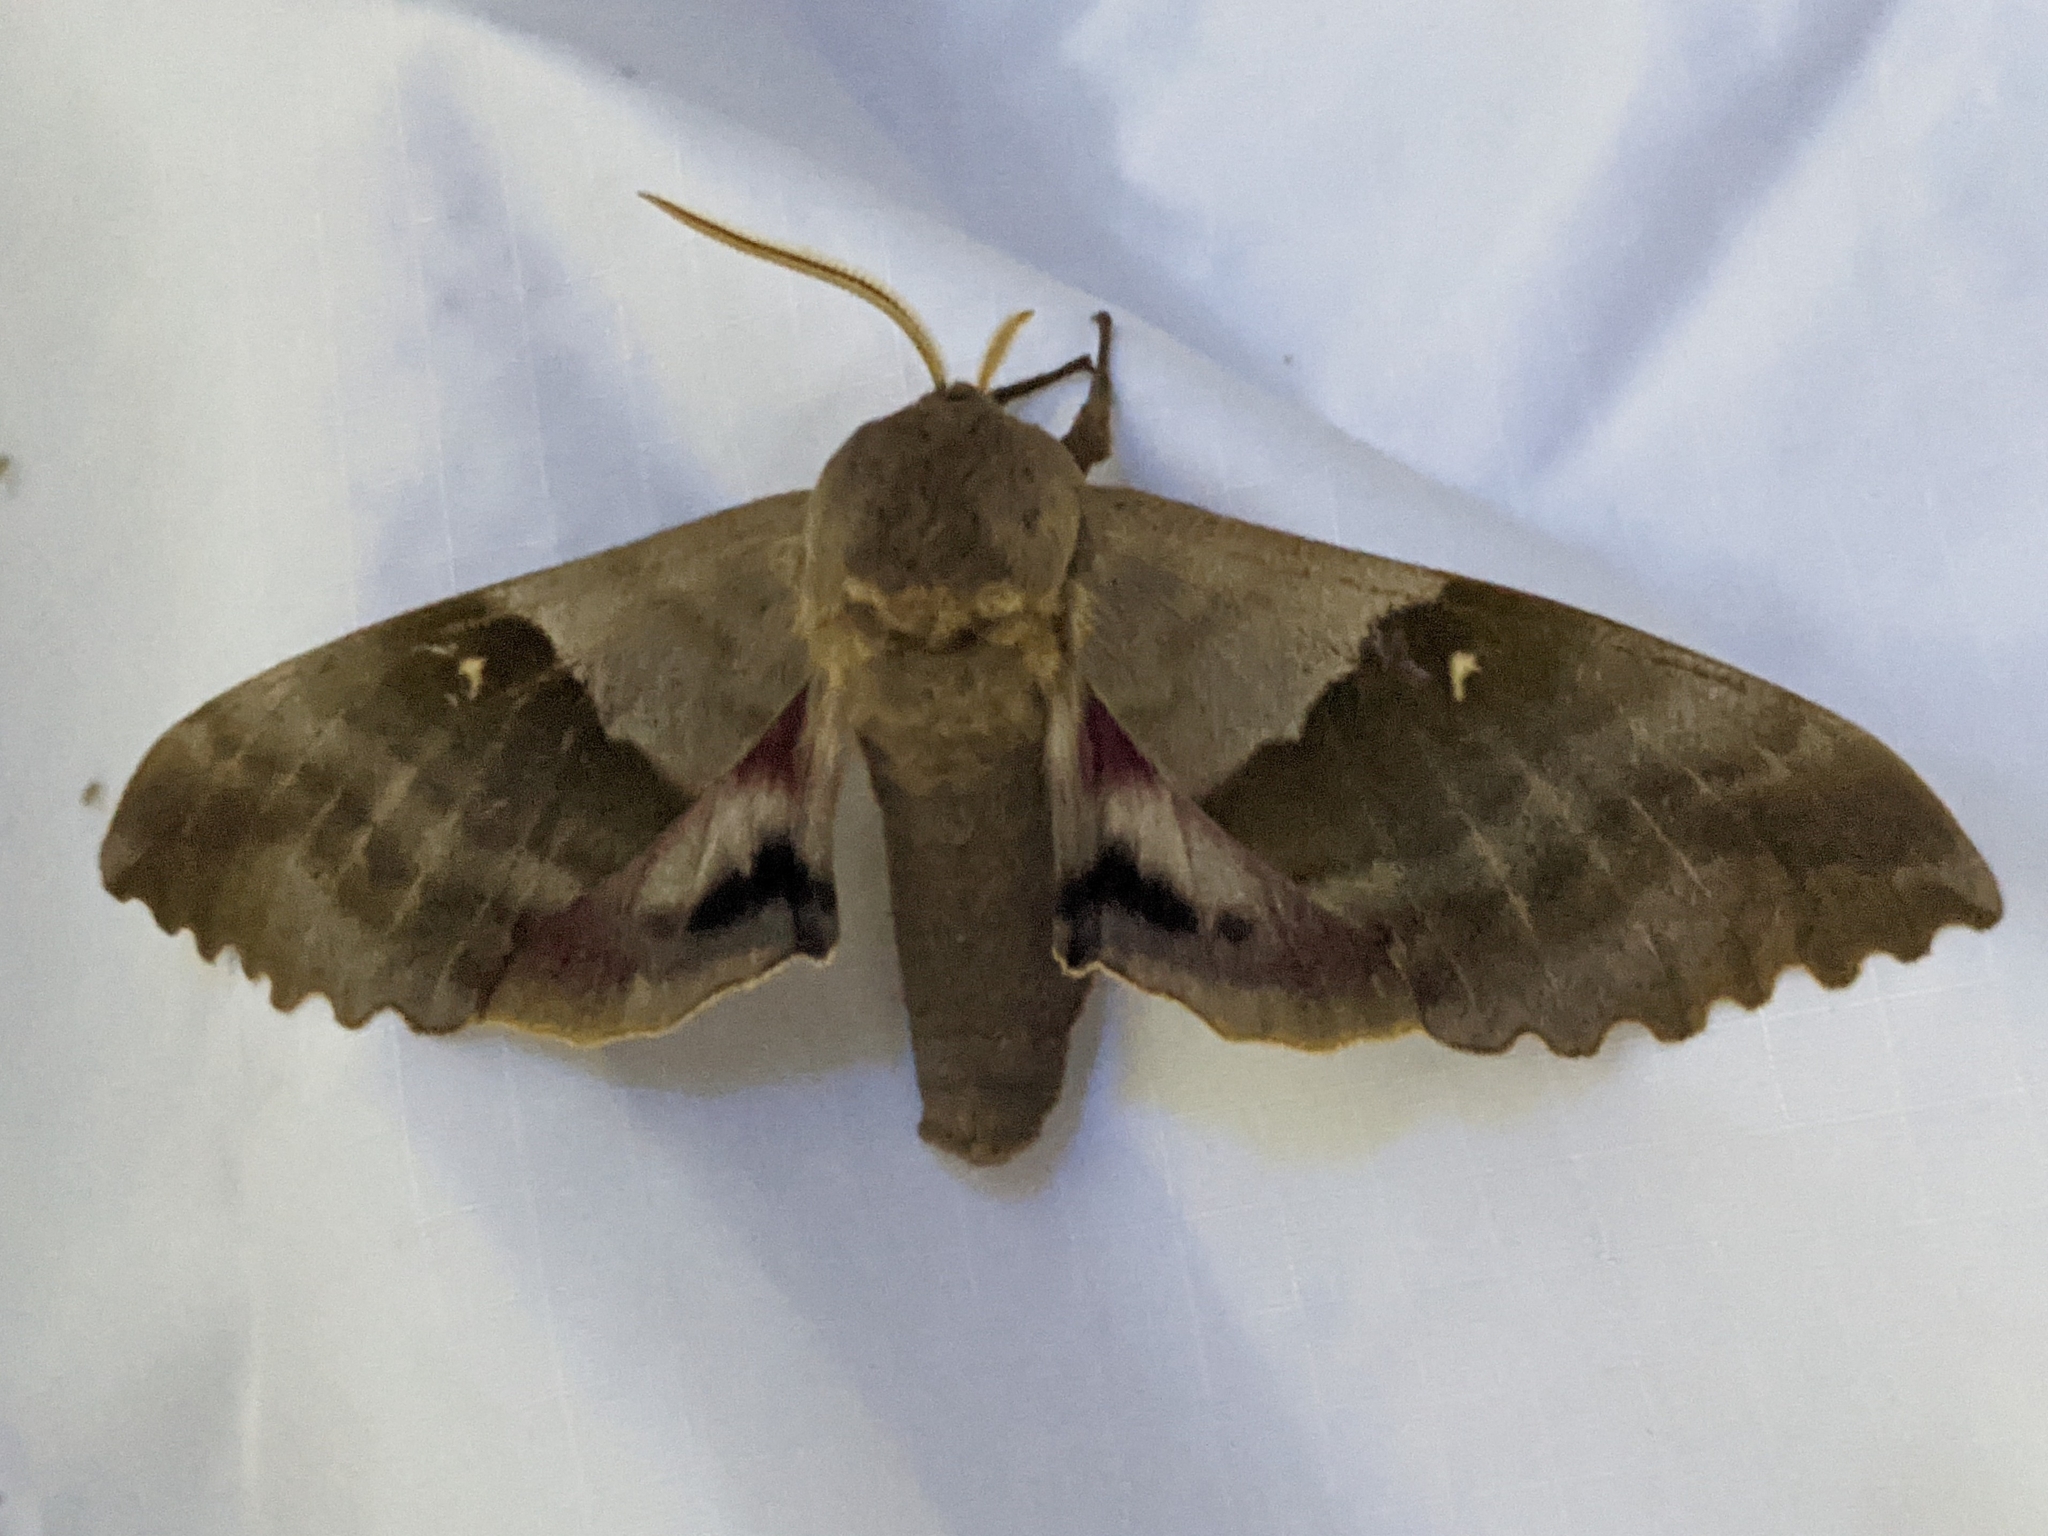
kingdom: Animalia
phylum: Arthropoda
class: Insecta
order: Lepidoptera
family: Sphingidae
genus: Pachysphinx
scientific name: Pachysphinx modesta
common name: Big poplar sphinx
